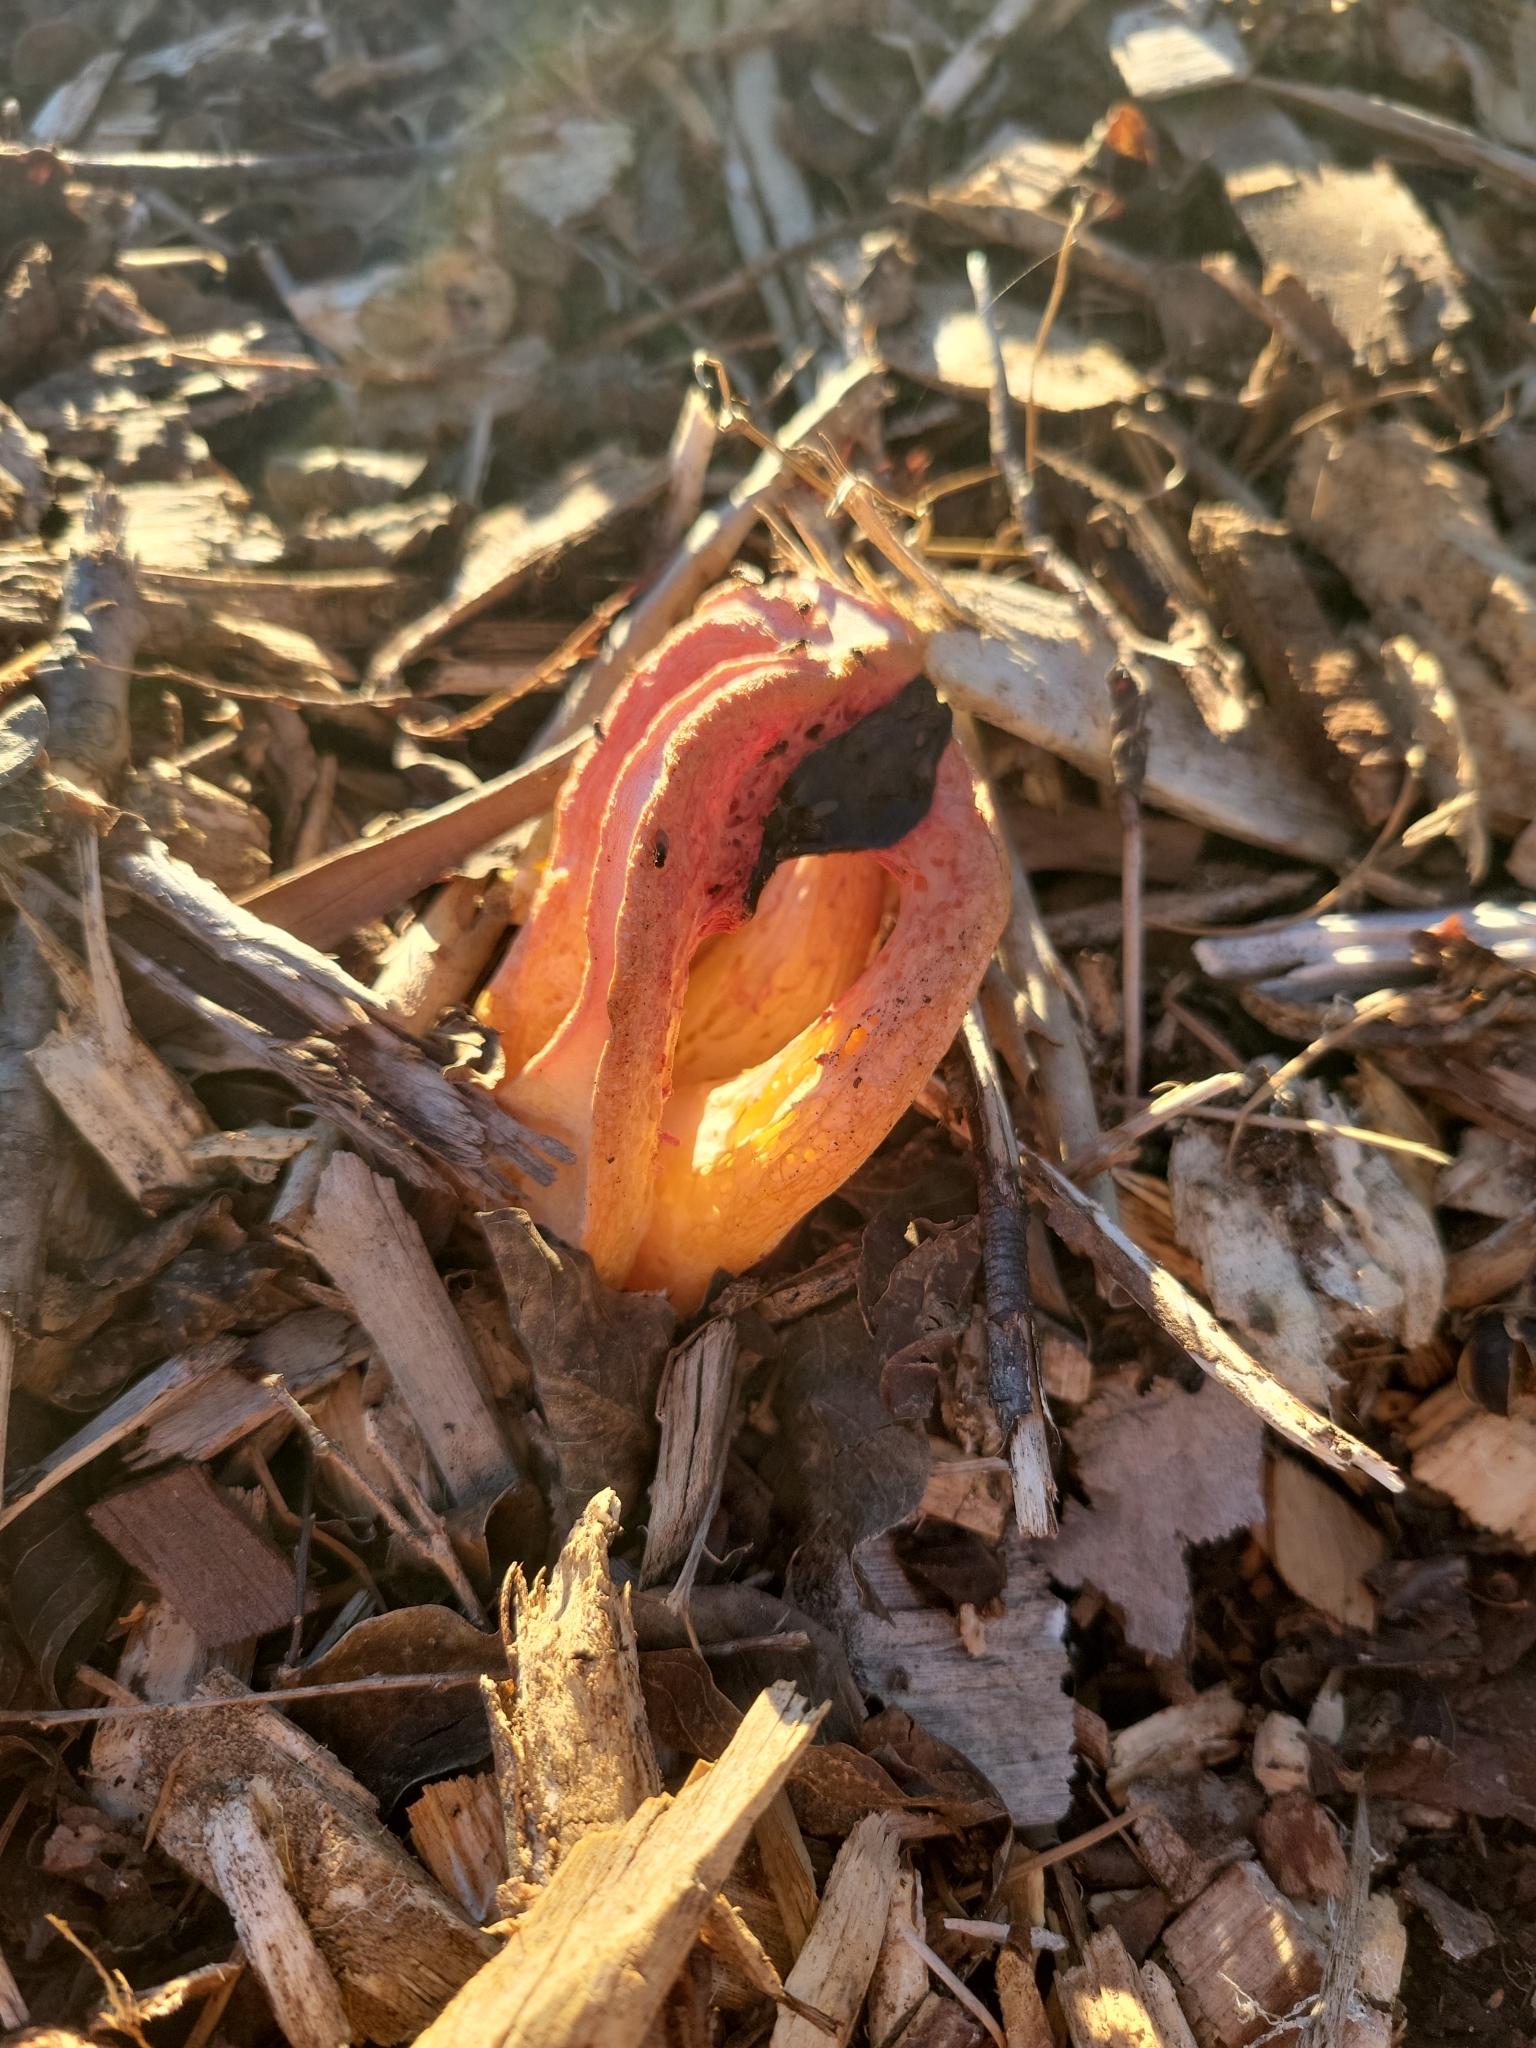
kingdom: Fungi
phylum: Basidiomycota
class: Agaricomycetes
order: Phallales
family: Phallaceae
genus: Clathrus
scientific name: Clathrus columnatus
